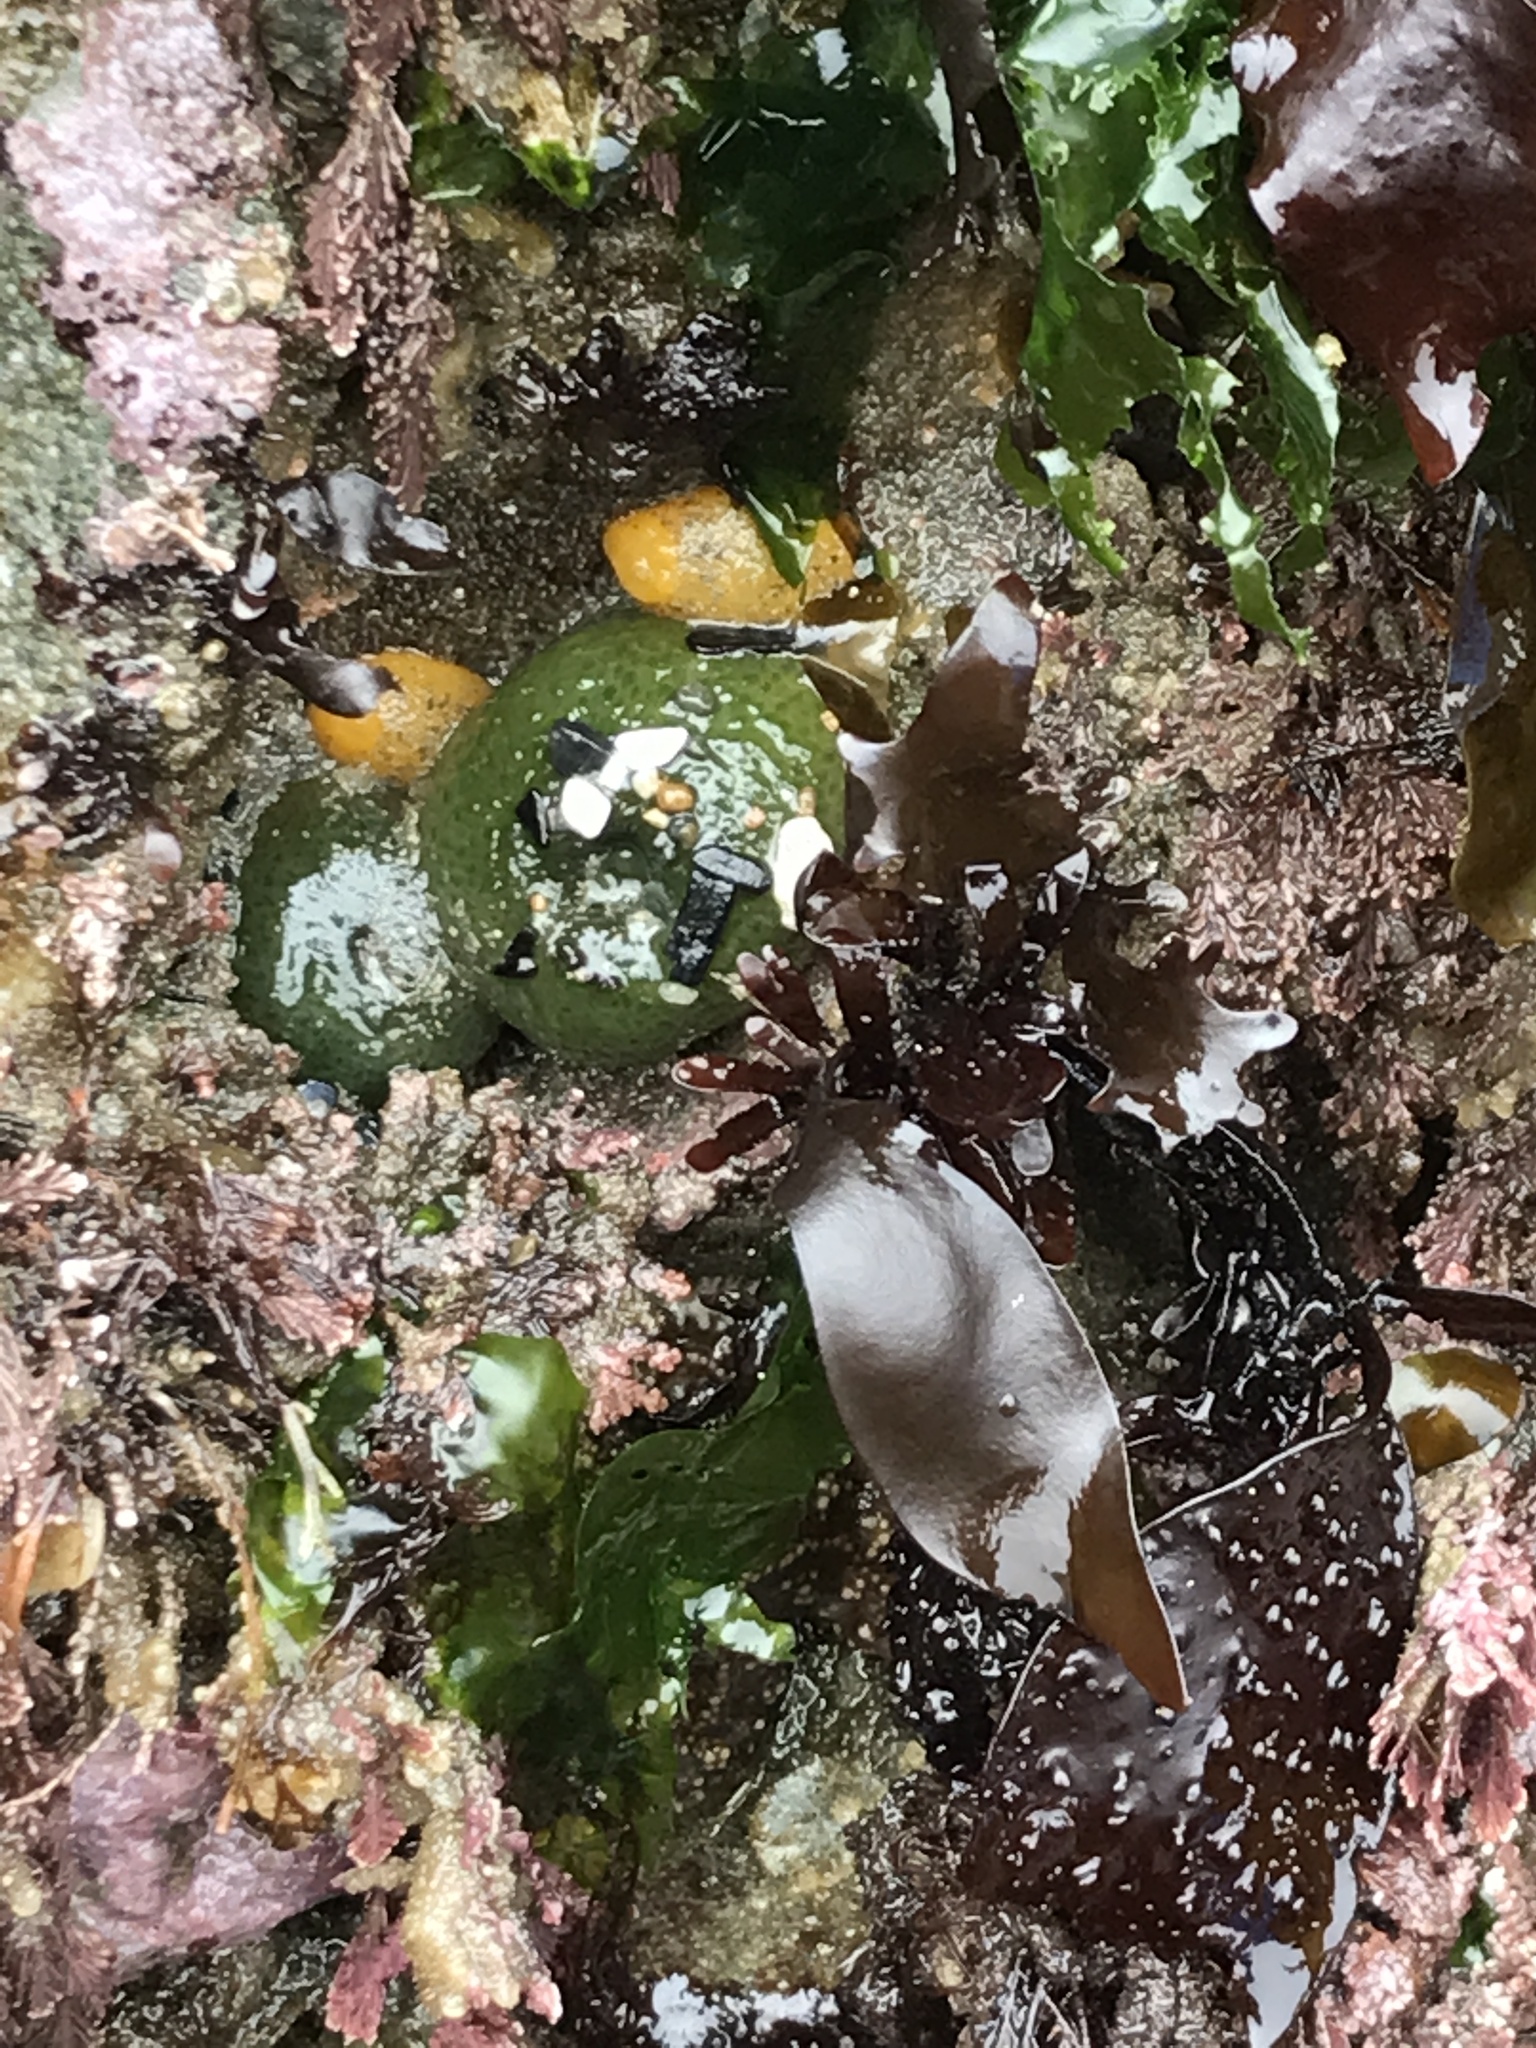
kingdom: Animalia
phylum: Mollusca
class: Gastropoda
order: Nudibranchia
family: Dorididae
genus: Doris
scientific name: Doris montereyensis
